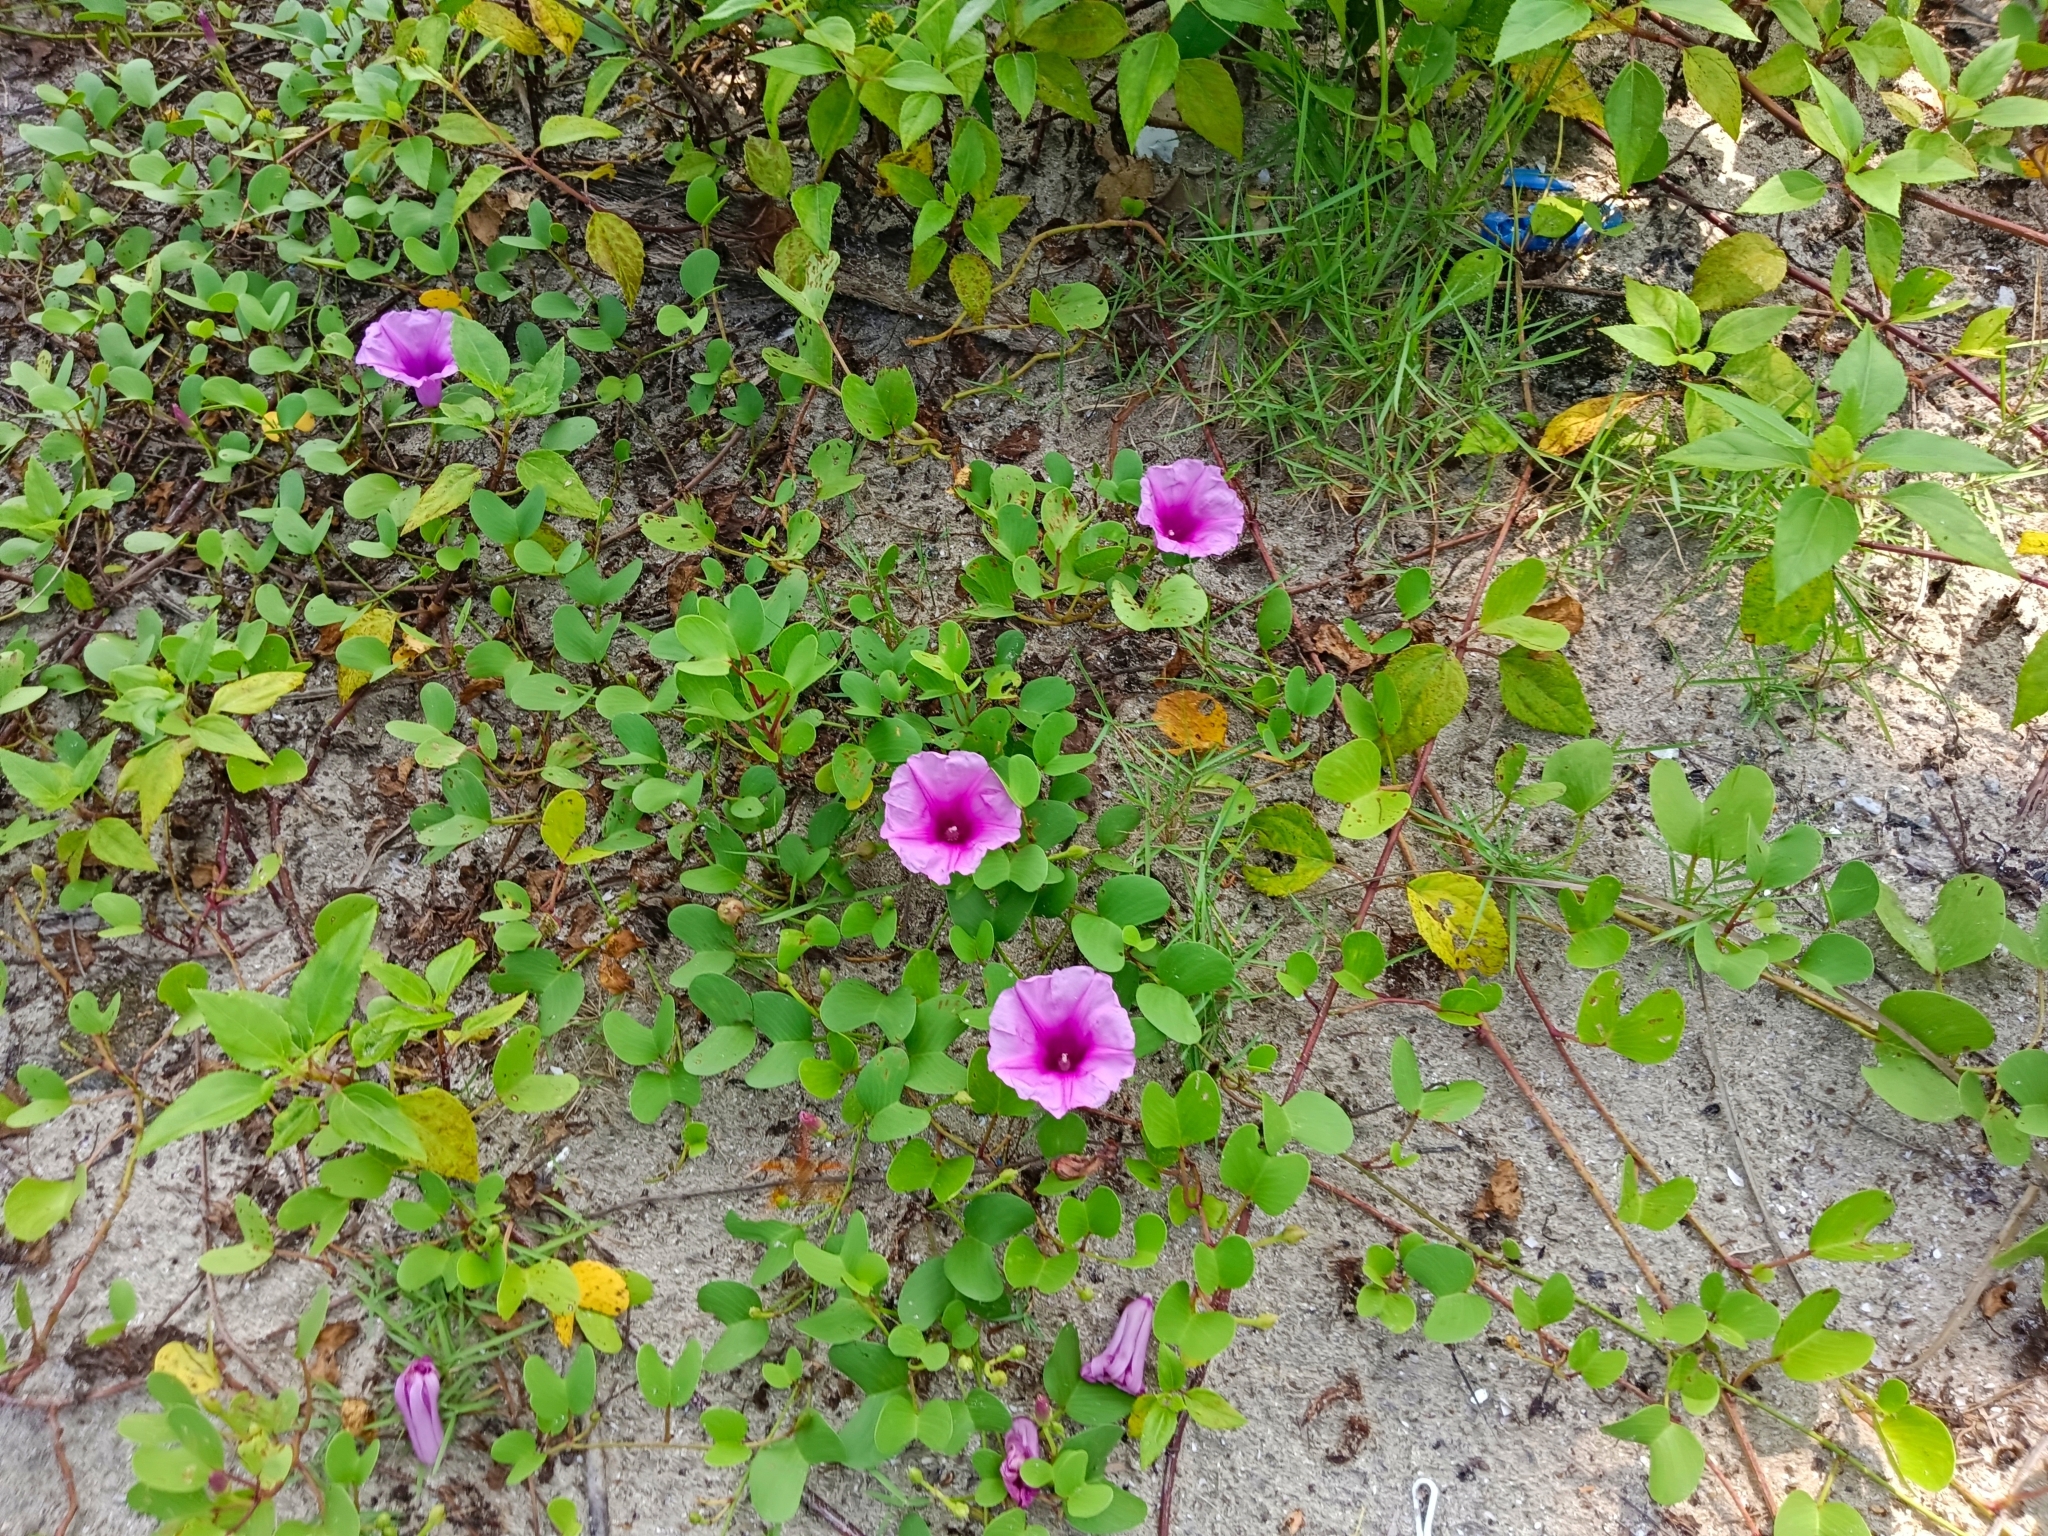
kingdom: Plantae
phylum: Tracheophyta
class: Magnoliopsida
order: Solanales
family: Convolvulaceae
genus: Ipomoea
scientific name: Ipomoea pes-caprae
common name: Beach morning glory
